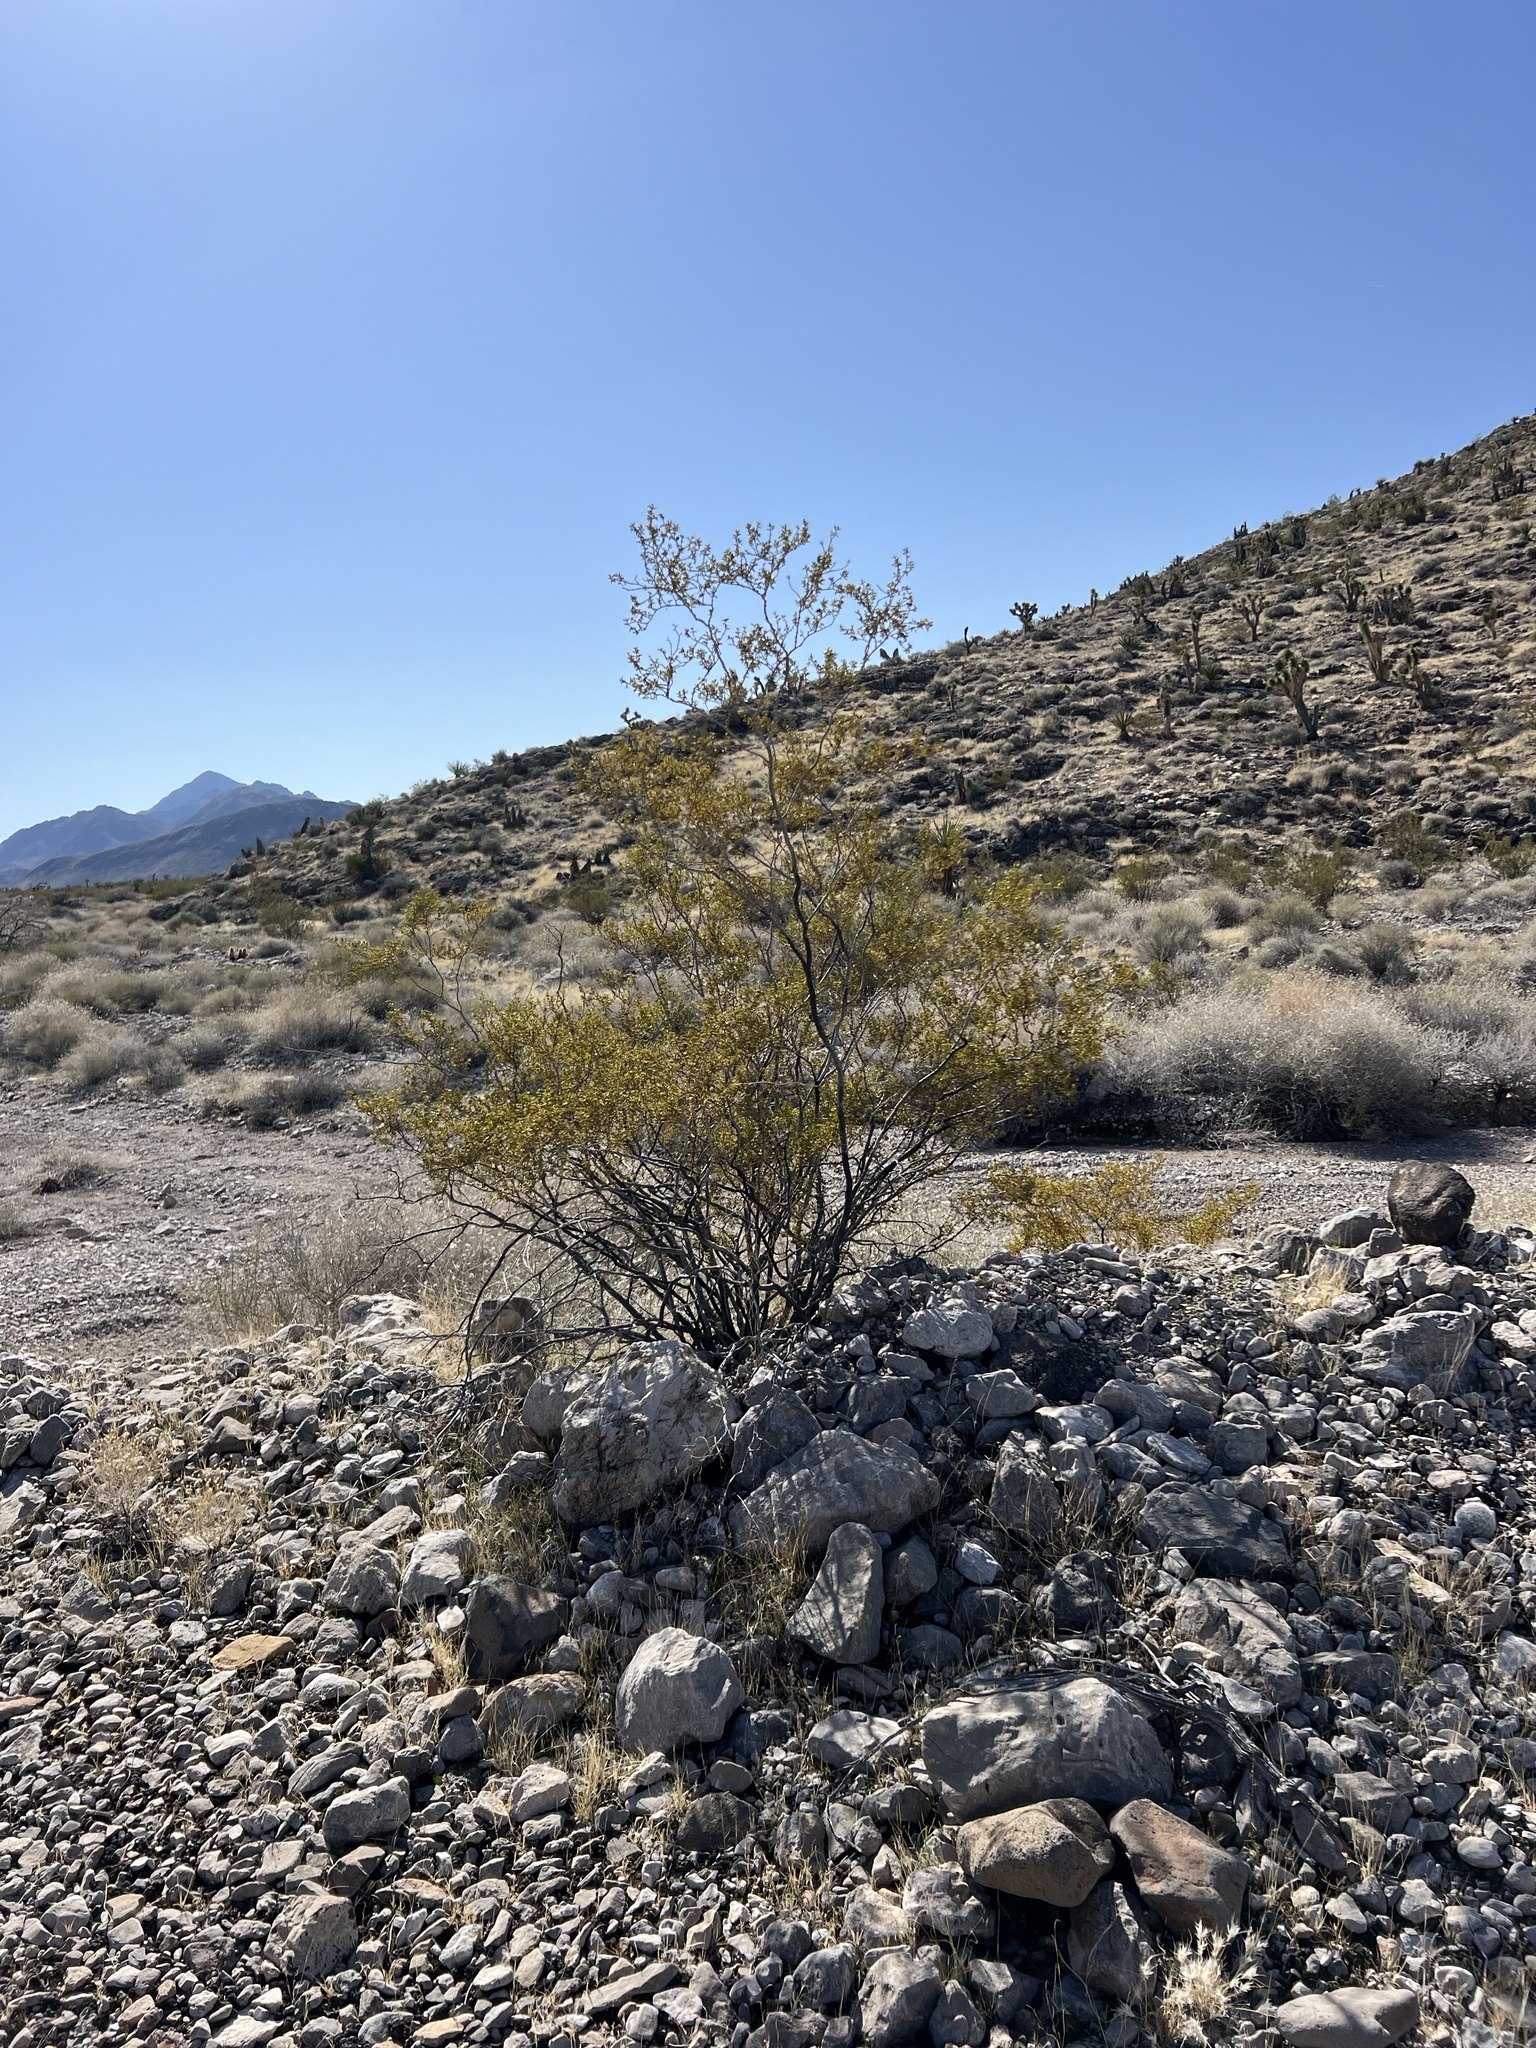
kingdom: Plantae
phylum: Tracheophyta
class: Magnoliopsida
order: Zygophyllales
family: Zygophyllaceae
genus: Larrea
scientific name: Larrea tridentata
